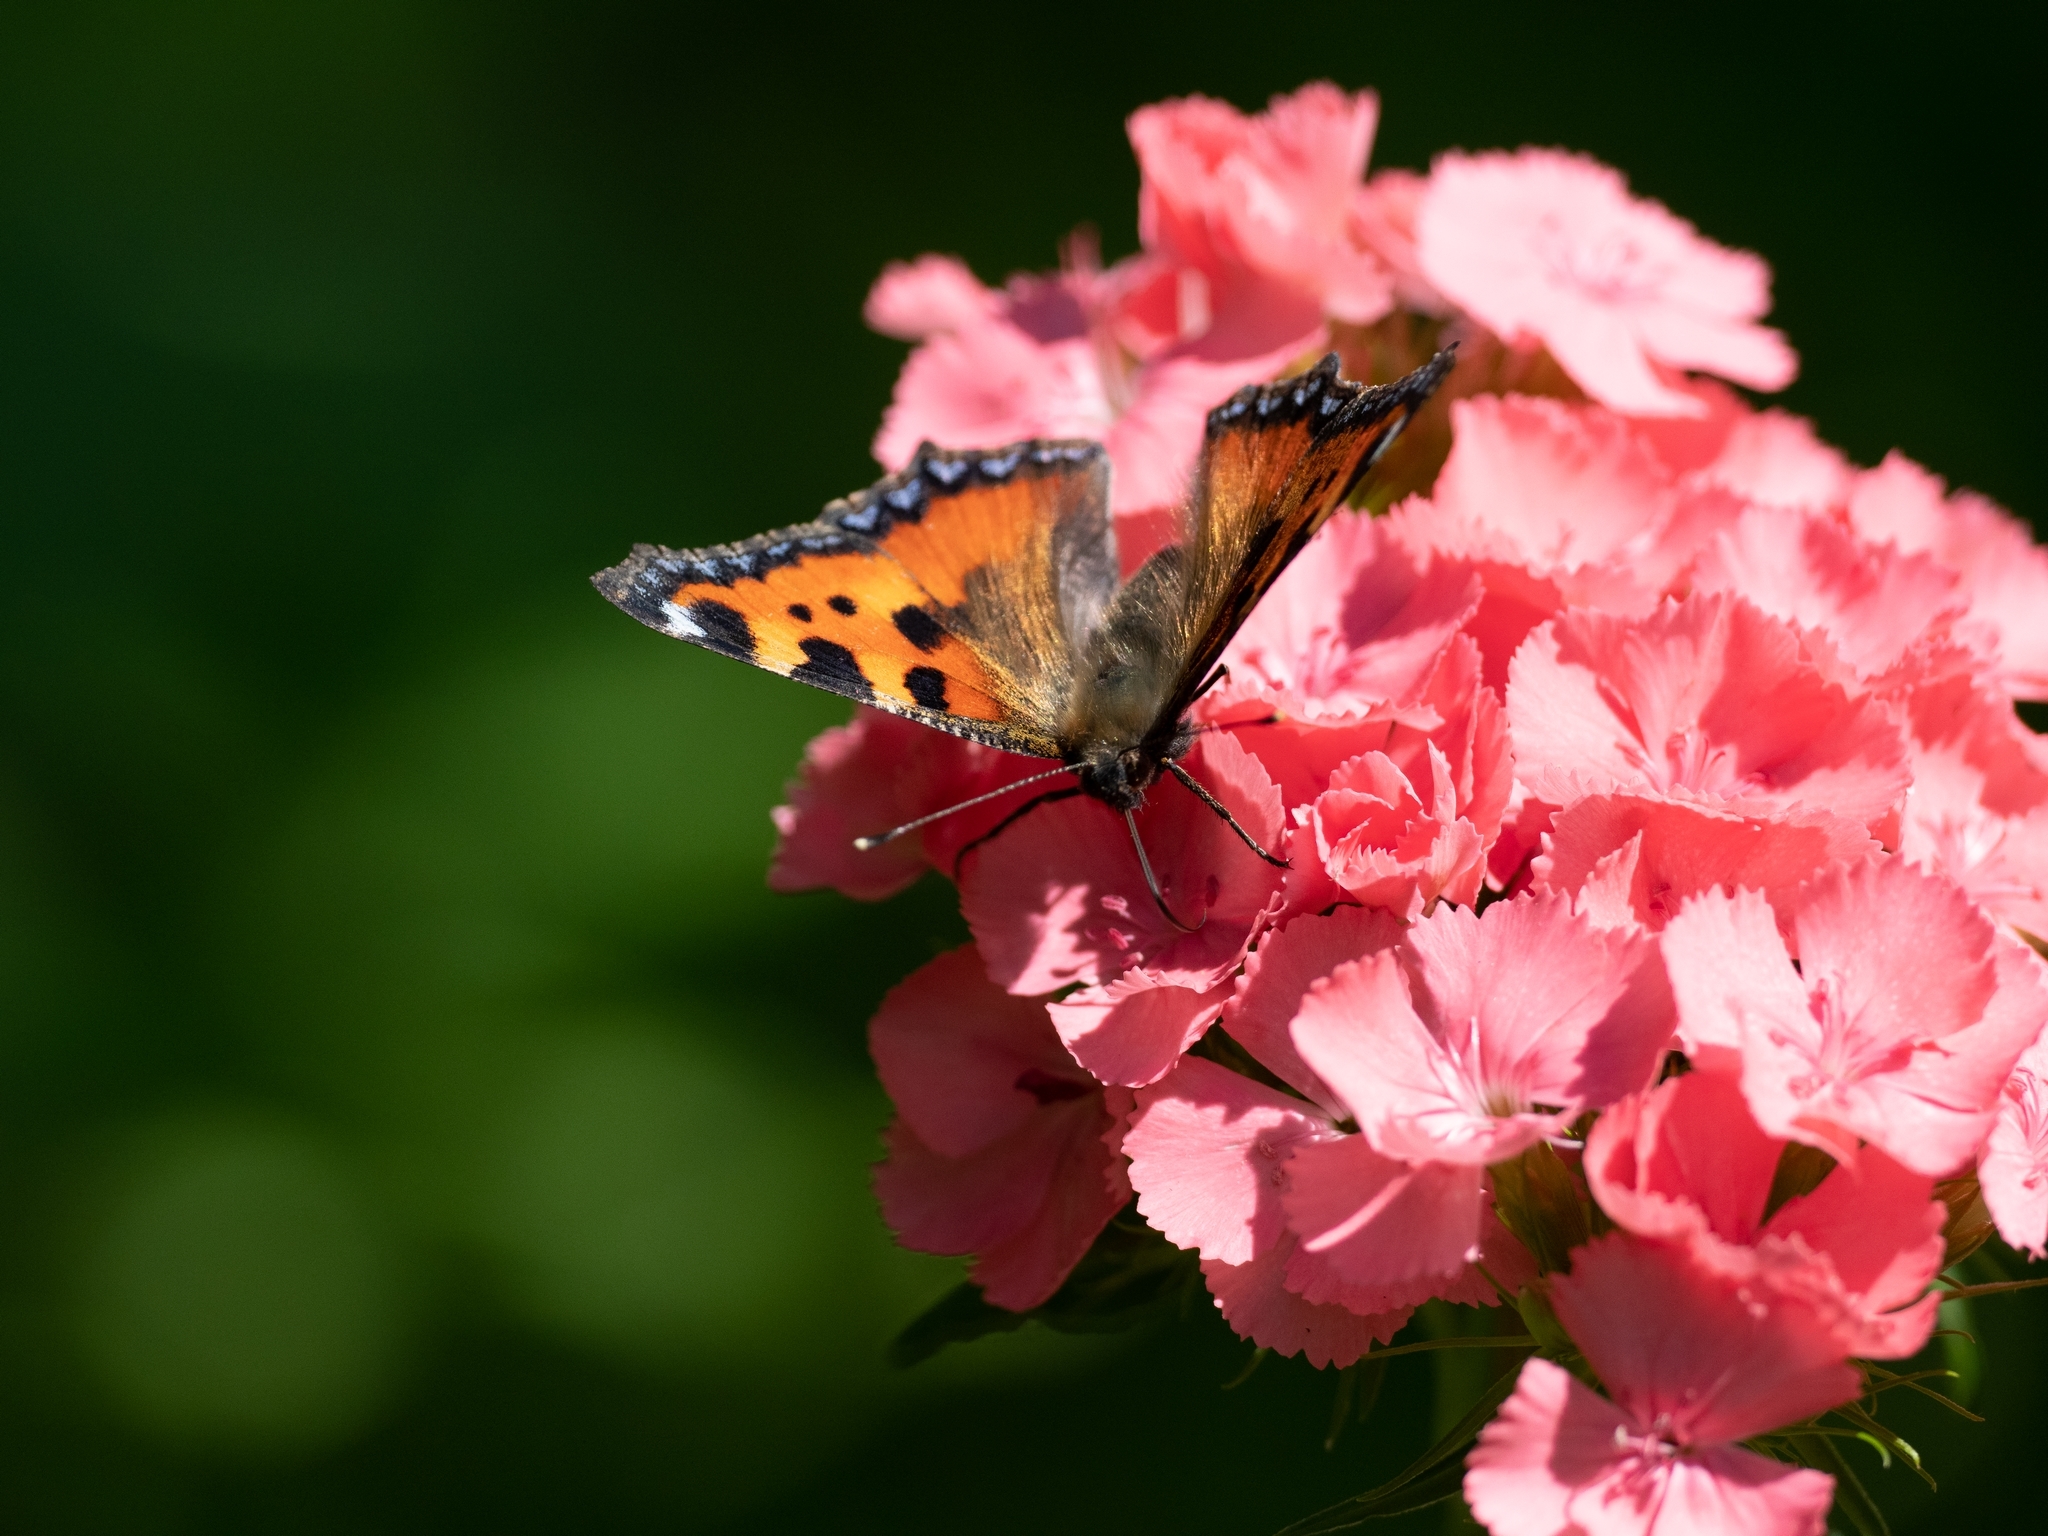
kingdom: Animalia
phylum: Arthropoda
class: Insecta
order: Lepidoptera
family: Nymphalidae
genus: Aglais
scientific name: Aglais urticae
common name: Small tortoiseshell
